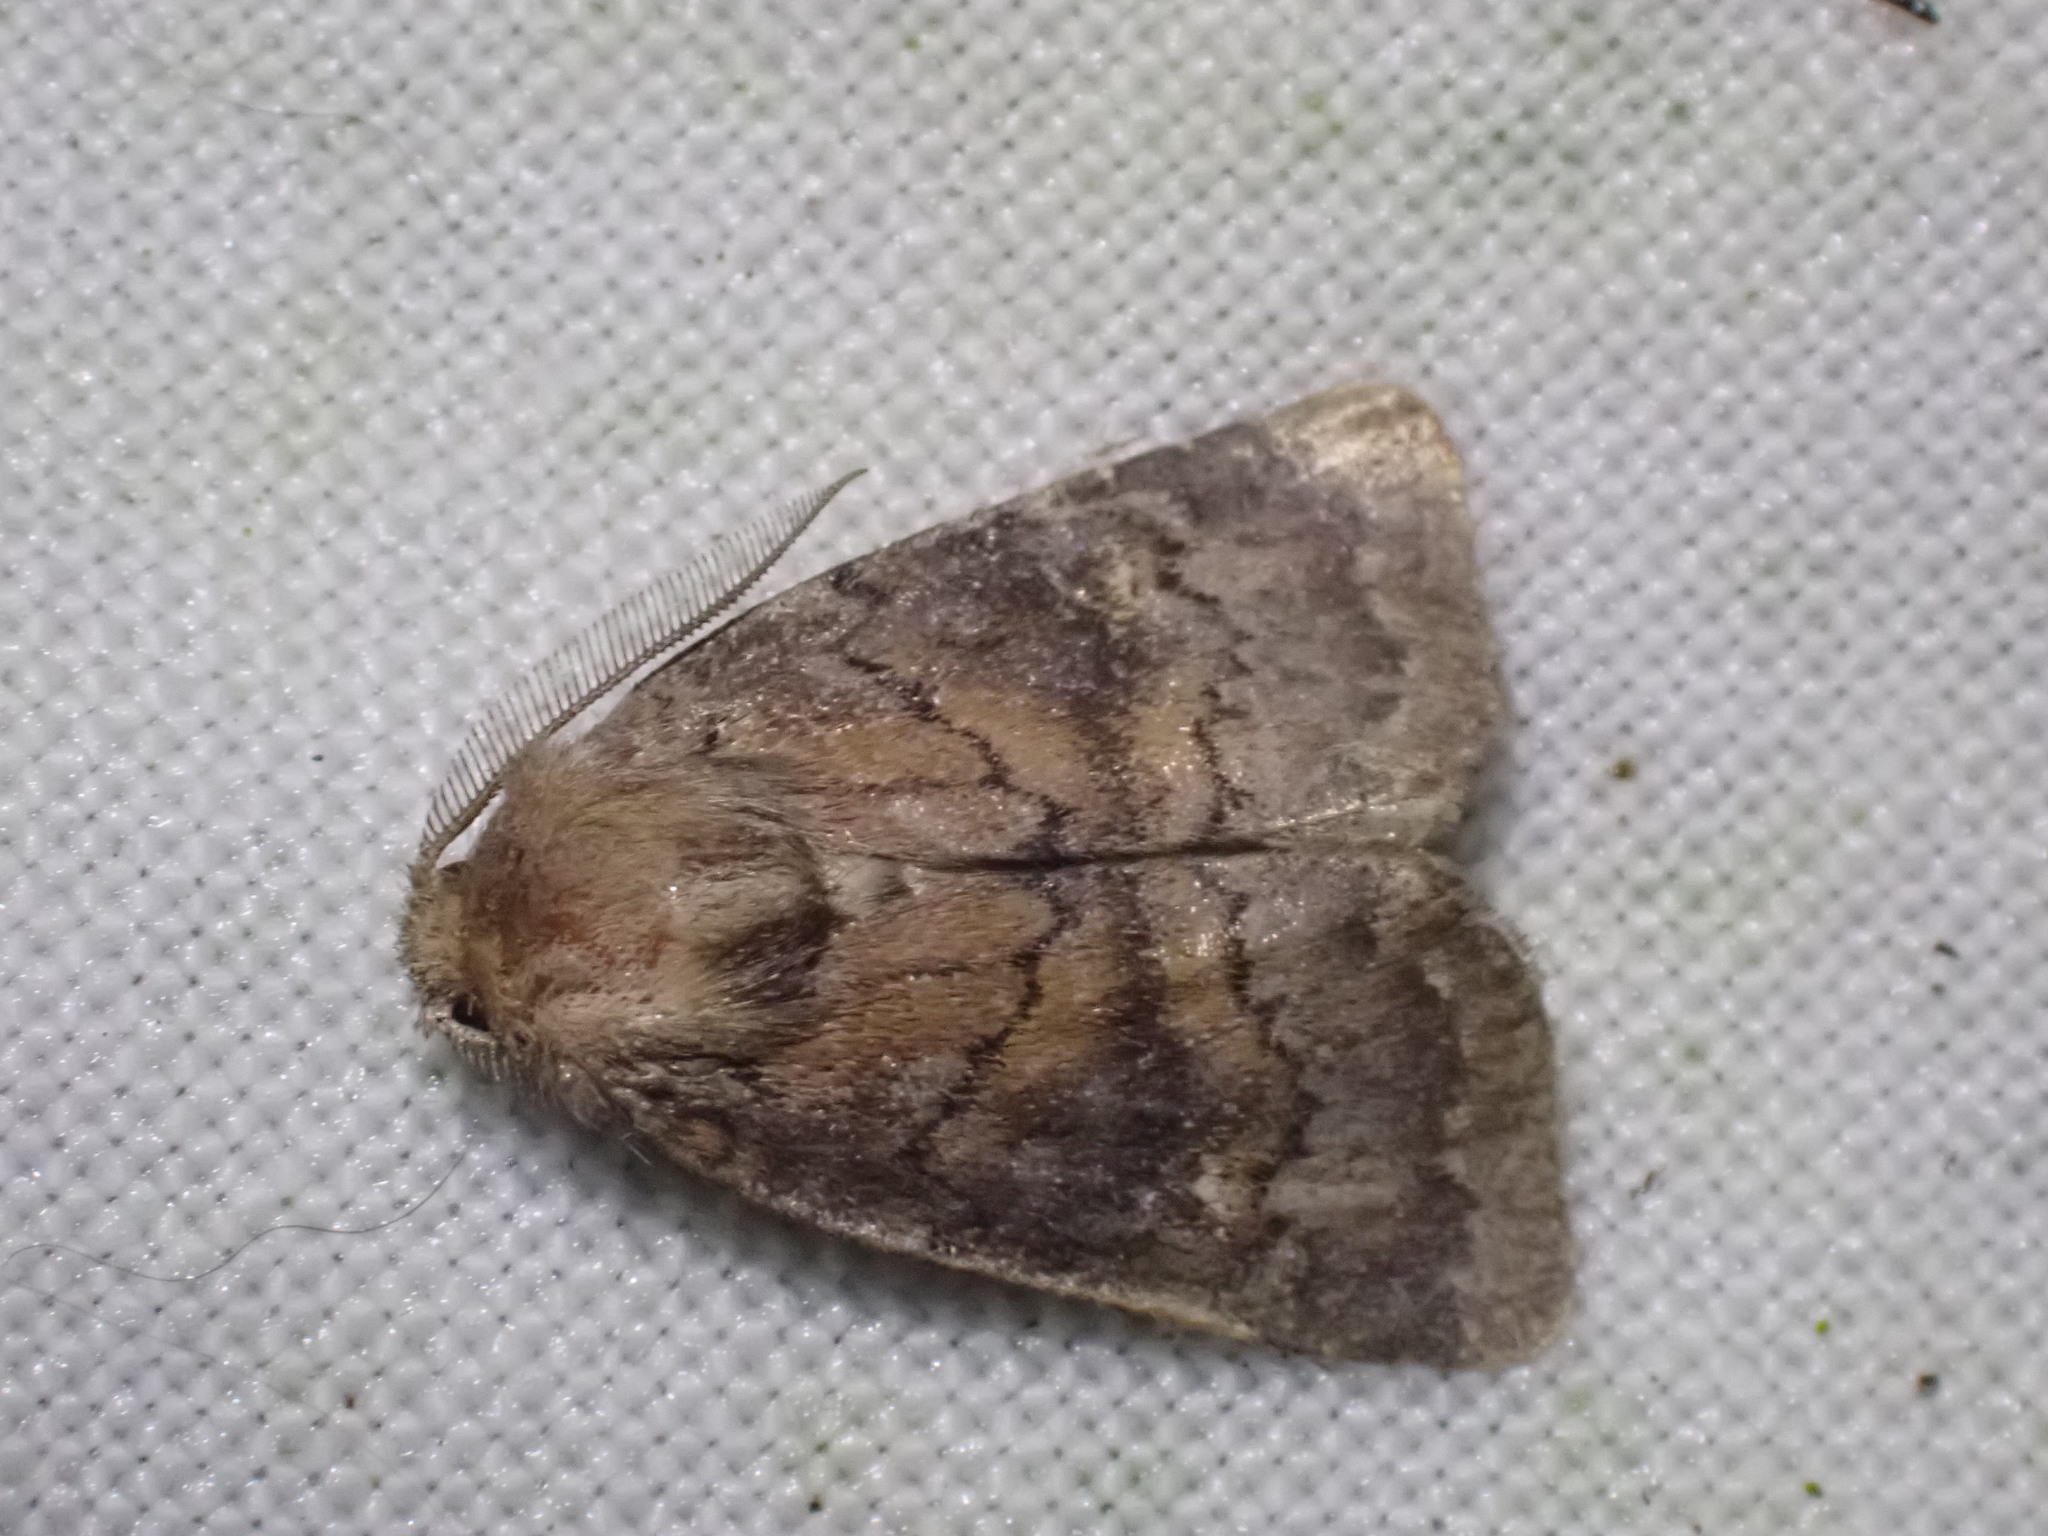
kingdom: Animalia
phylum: Arthropoda
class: Insecta
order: Lepidoptera
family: Noctuidae
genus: Charanyca
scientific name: Charanyca ferruginea
